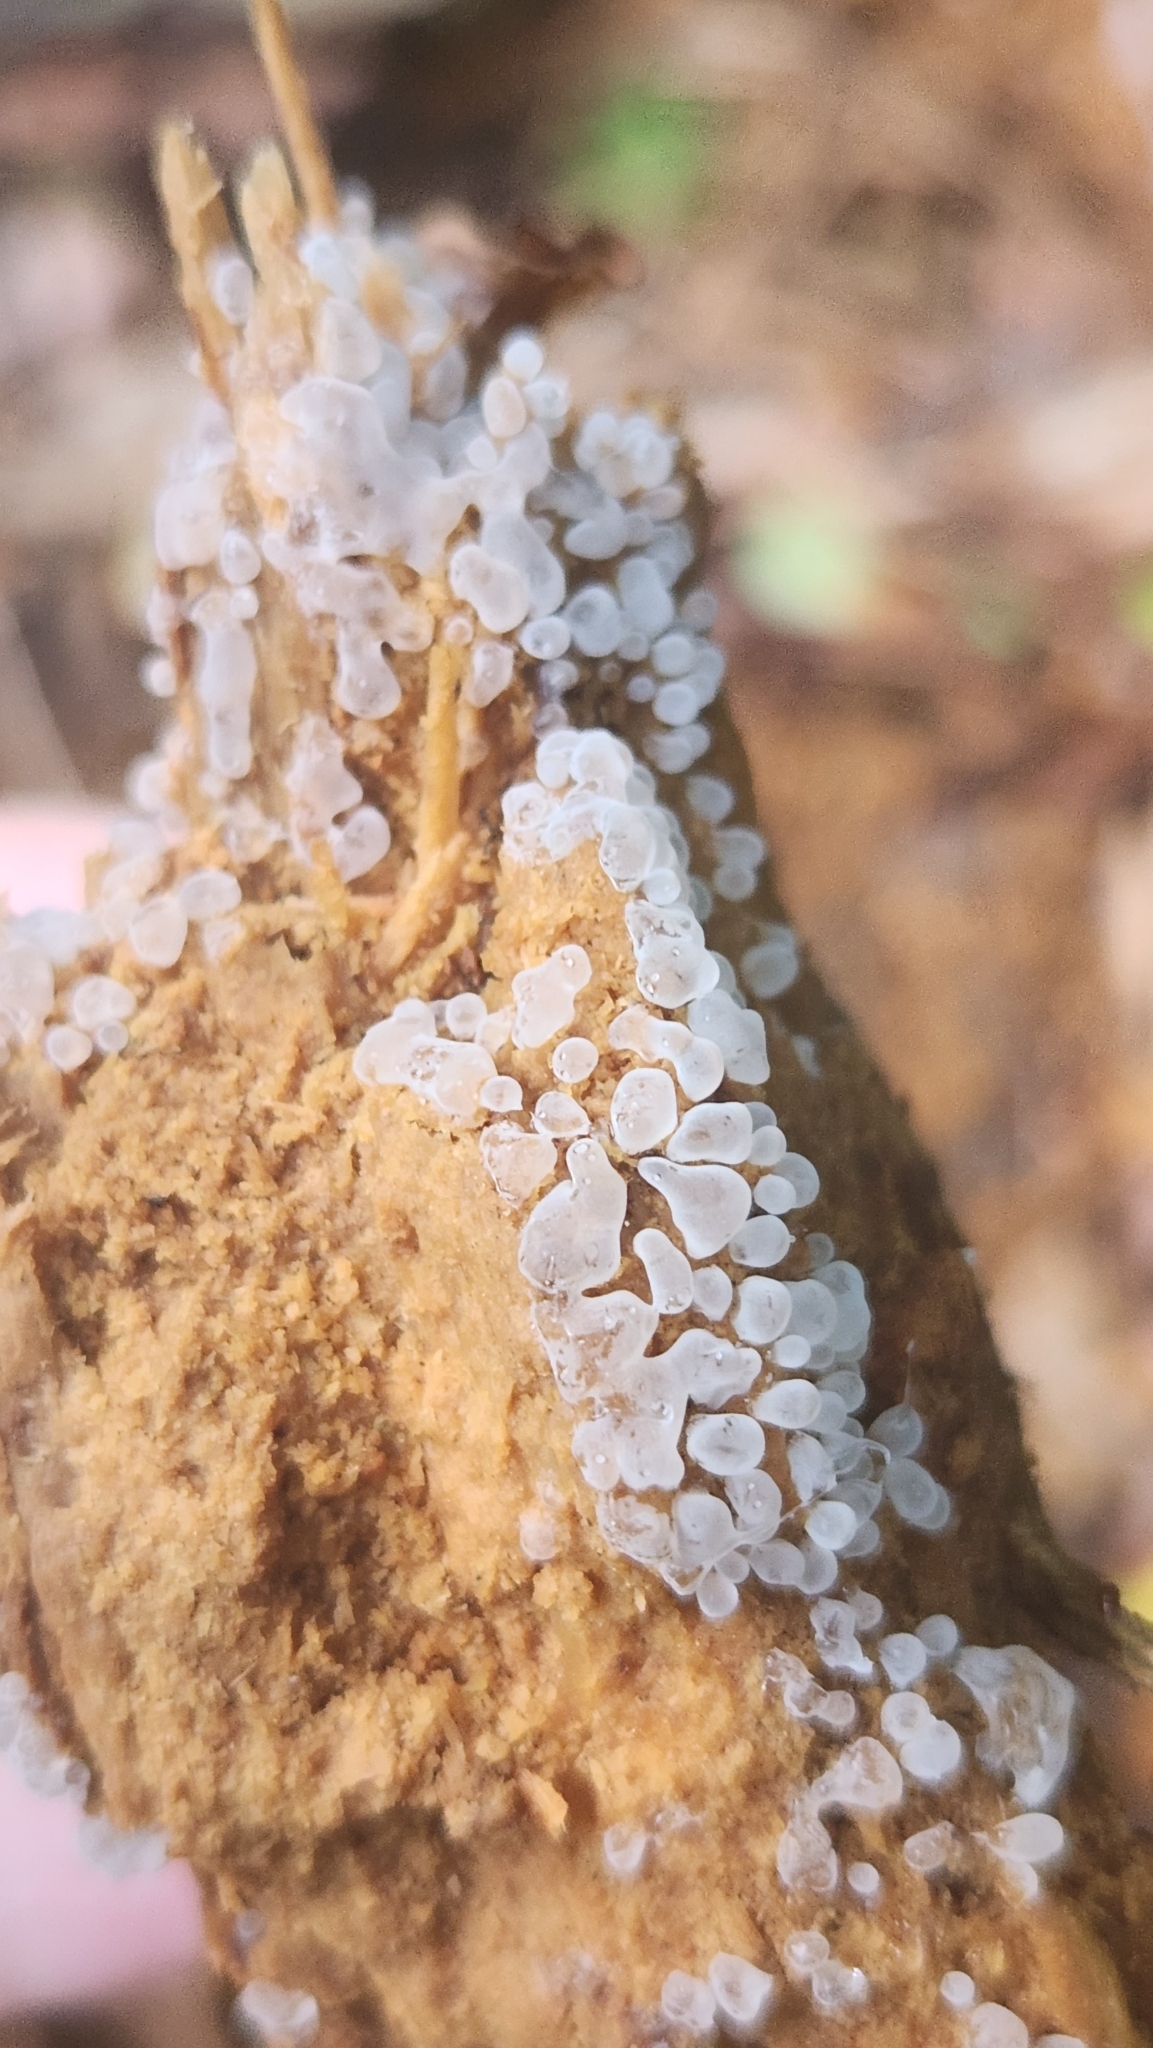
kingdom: Protozoa
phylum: Mycetozoa
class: Protosteliomycetes
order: Ceratiomyxales
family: Ceratiomyxaceae
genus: Ceratiomyxa
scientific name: Ceratiomyxa fruticulosa
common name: Honeycomb coral slime mold
